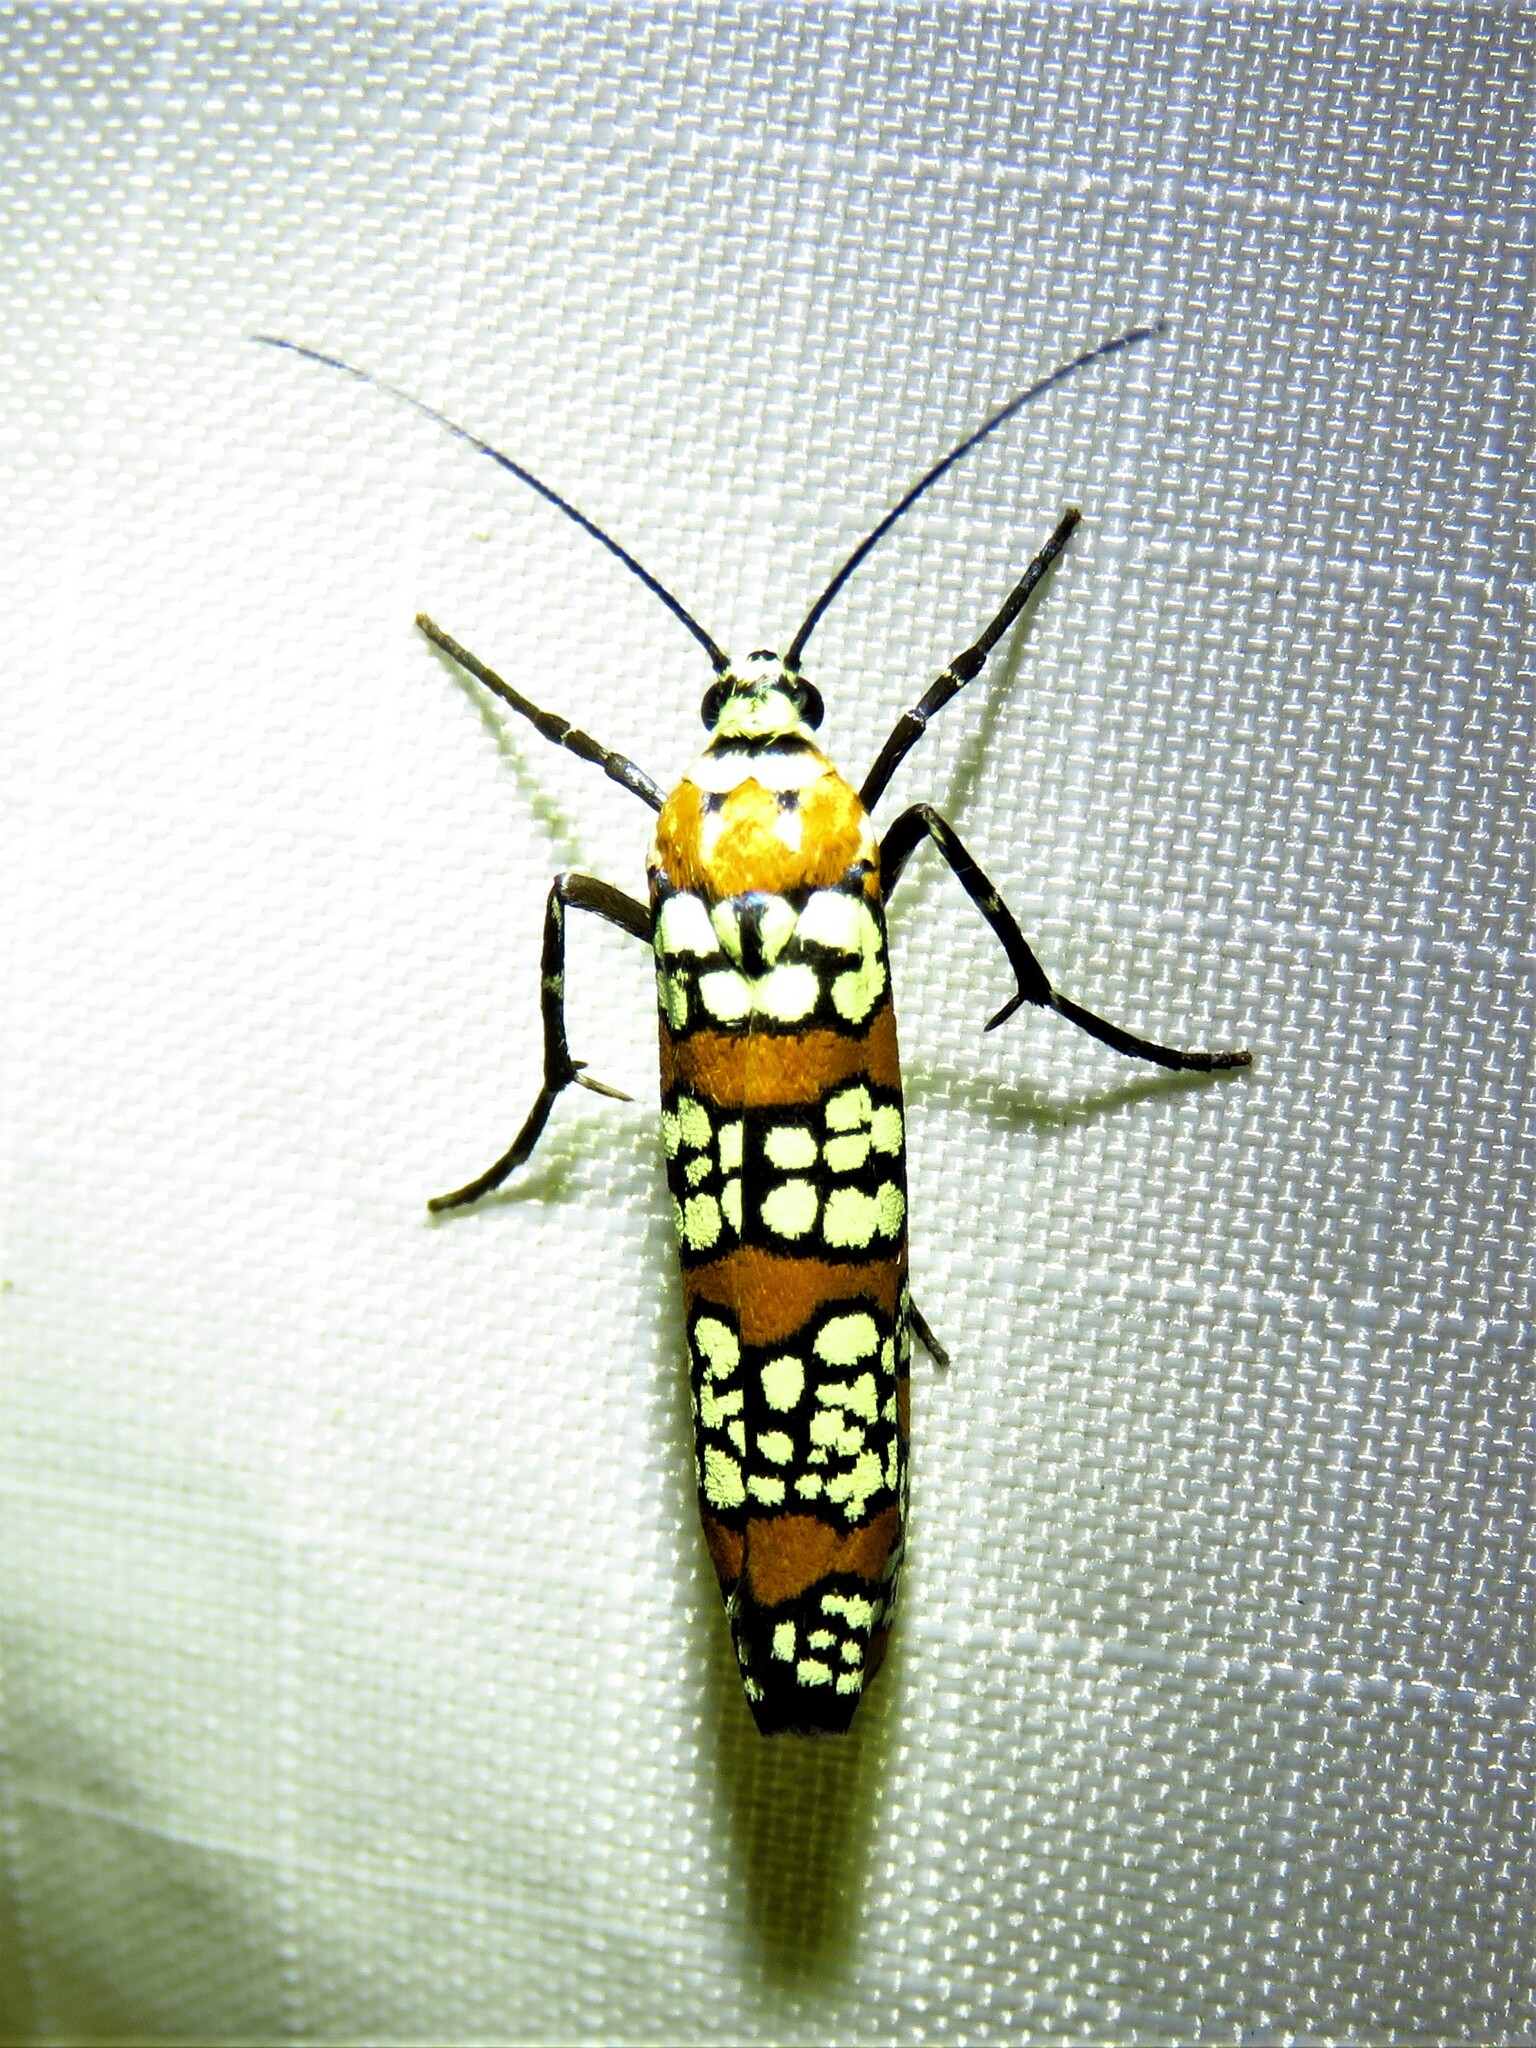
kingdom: Animalia
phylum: Arthropoda
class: Insecta
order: Lepidoptera
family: Attevidae
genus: Atteva
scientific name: Atteva punctella
